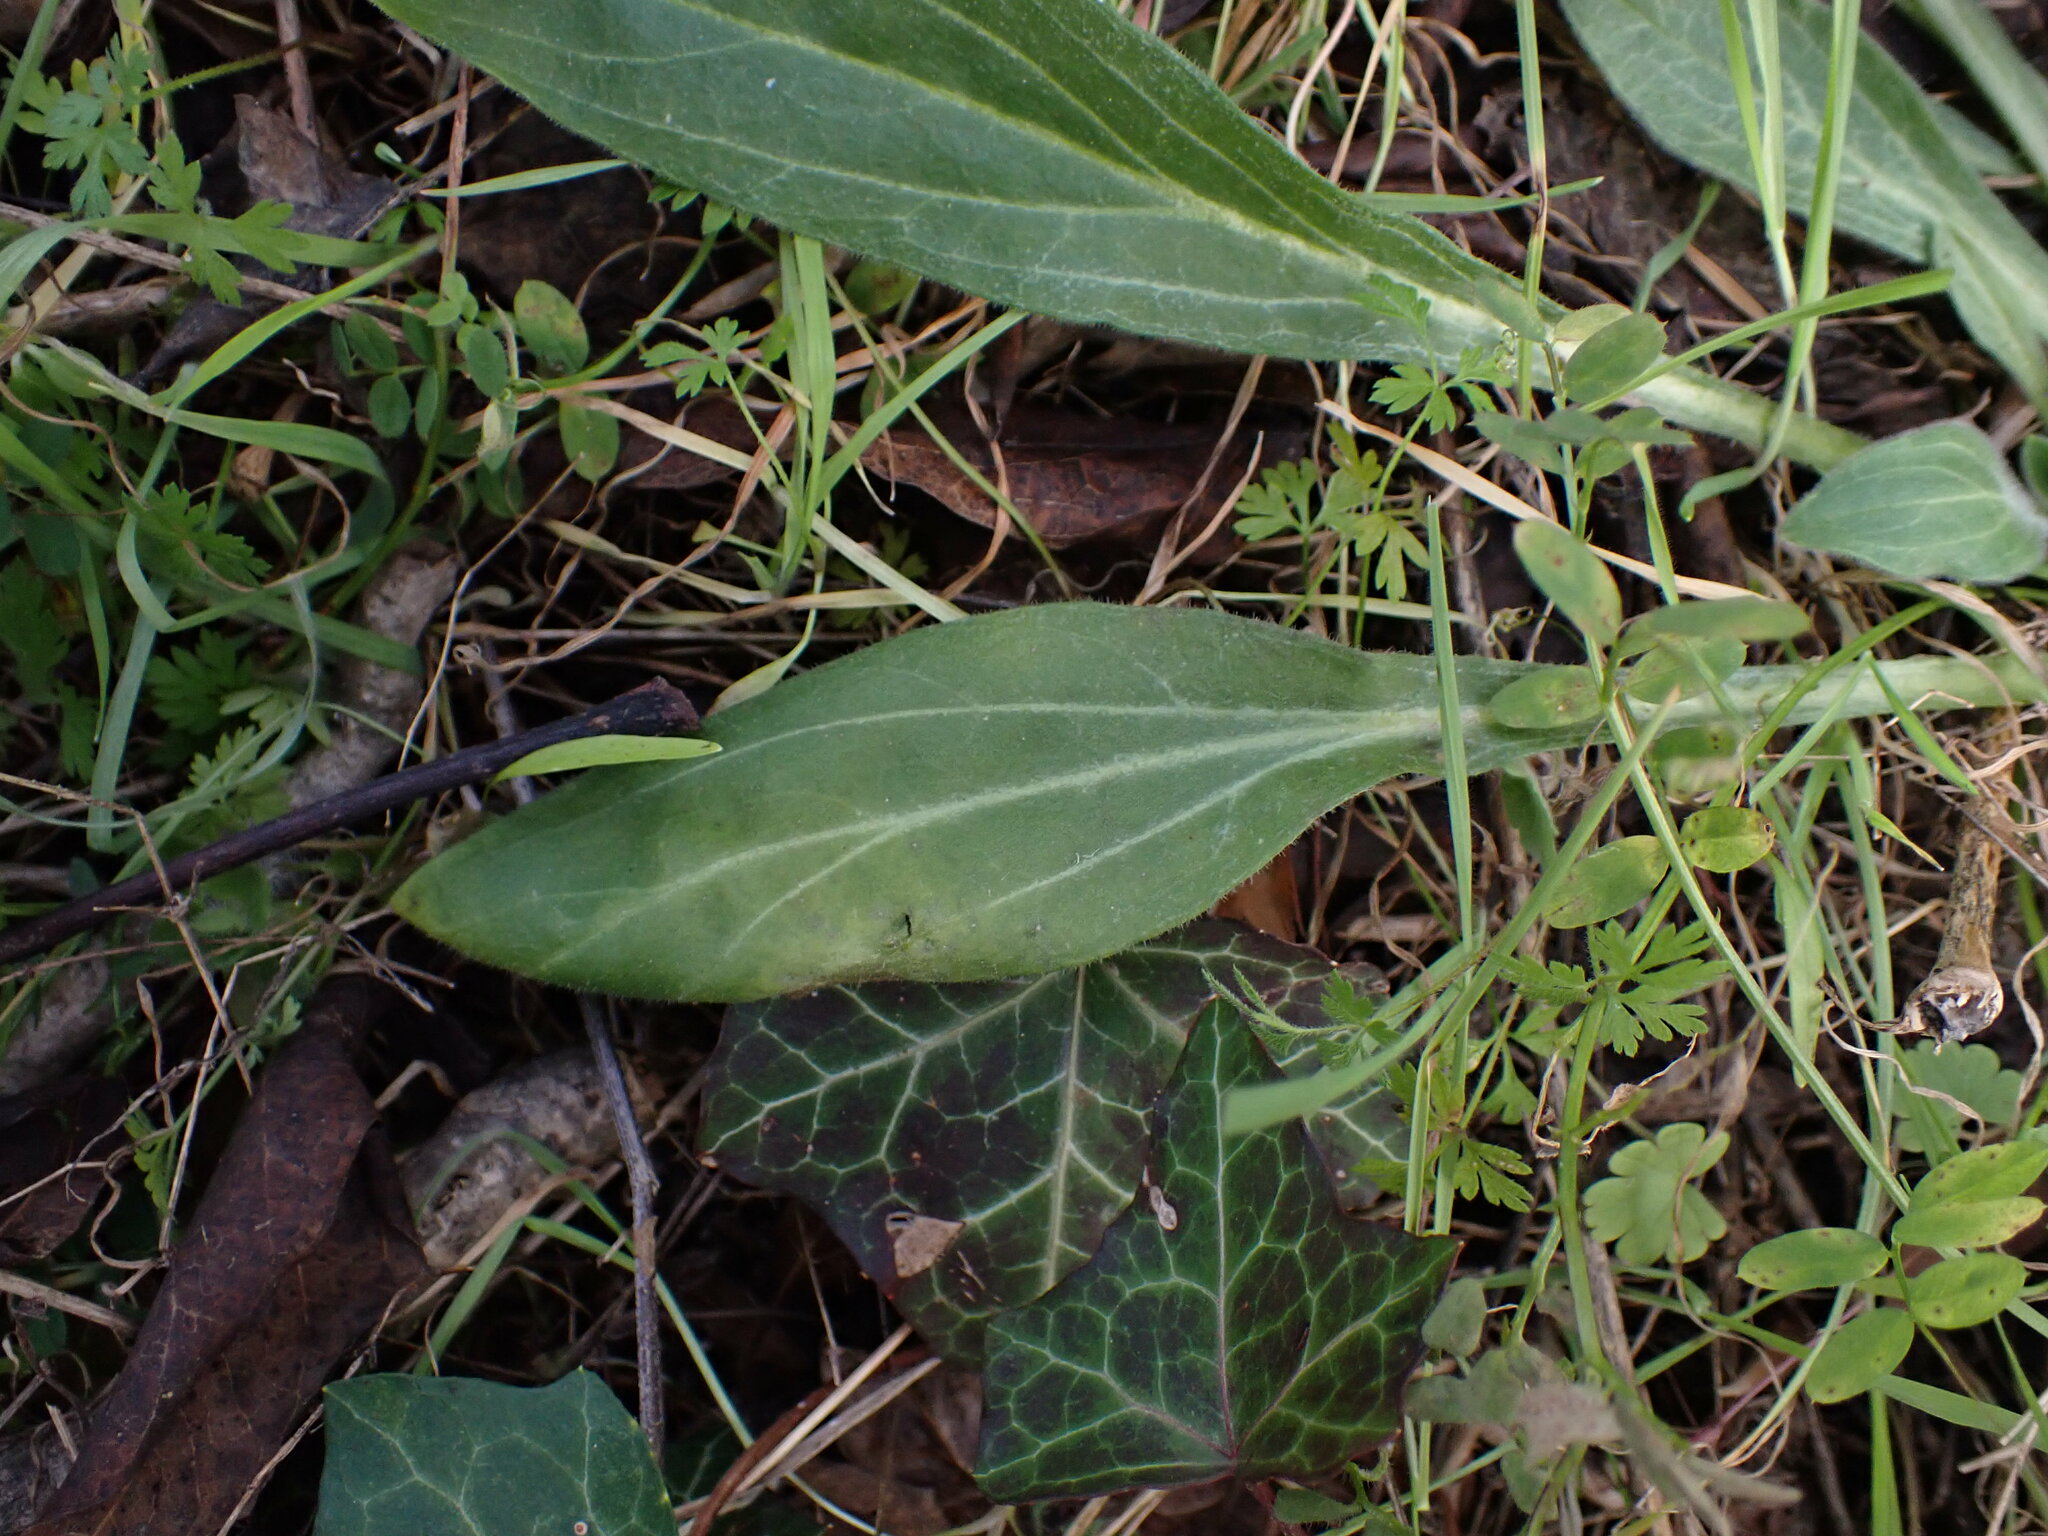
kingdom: Plantae
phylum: Tracheophyta
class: Magnoliopsida
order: Caryophyllales
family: Caryophyllaceae
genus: Silene
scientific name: Silene latifolia
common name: White campion
